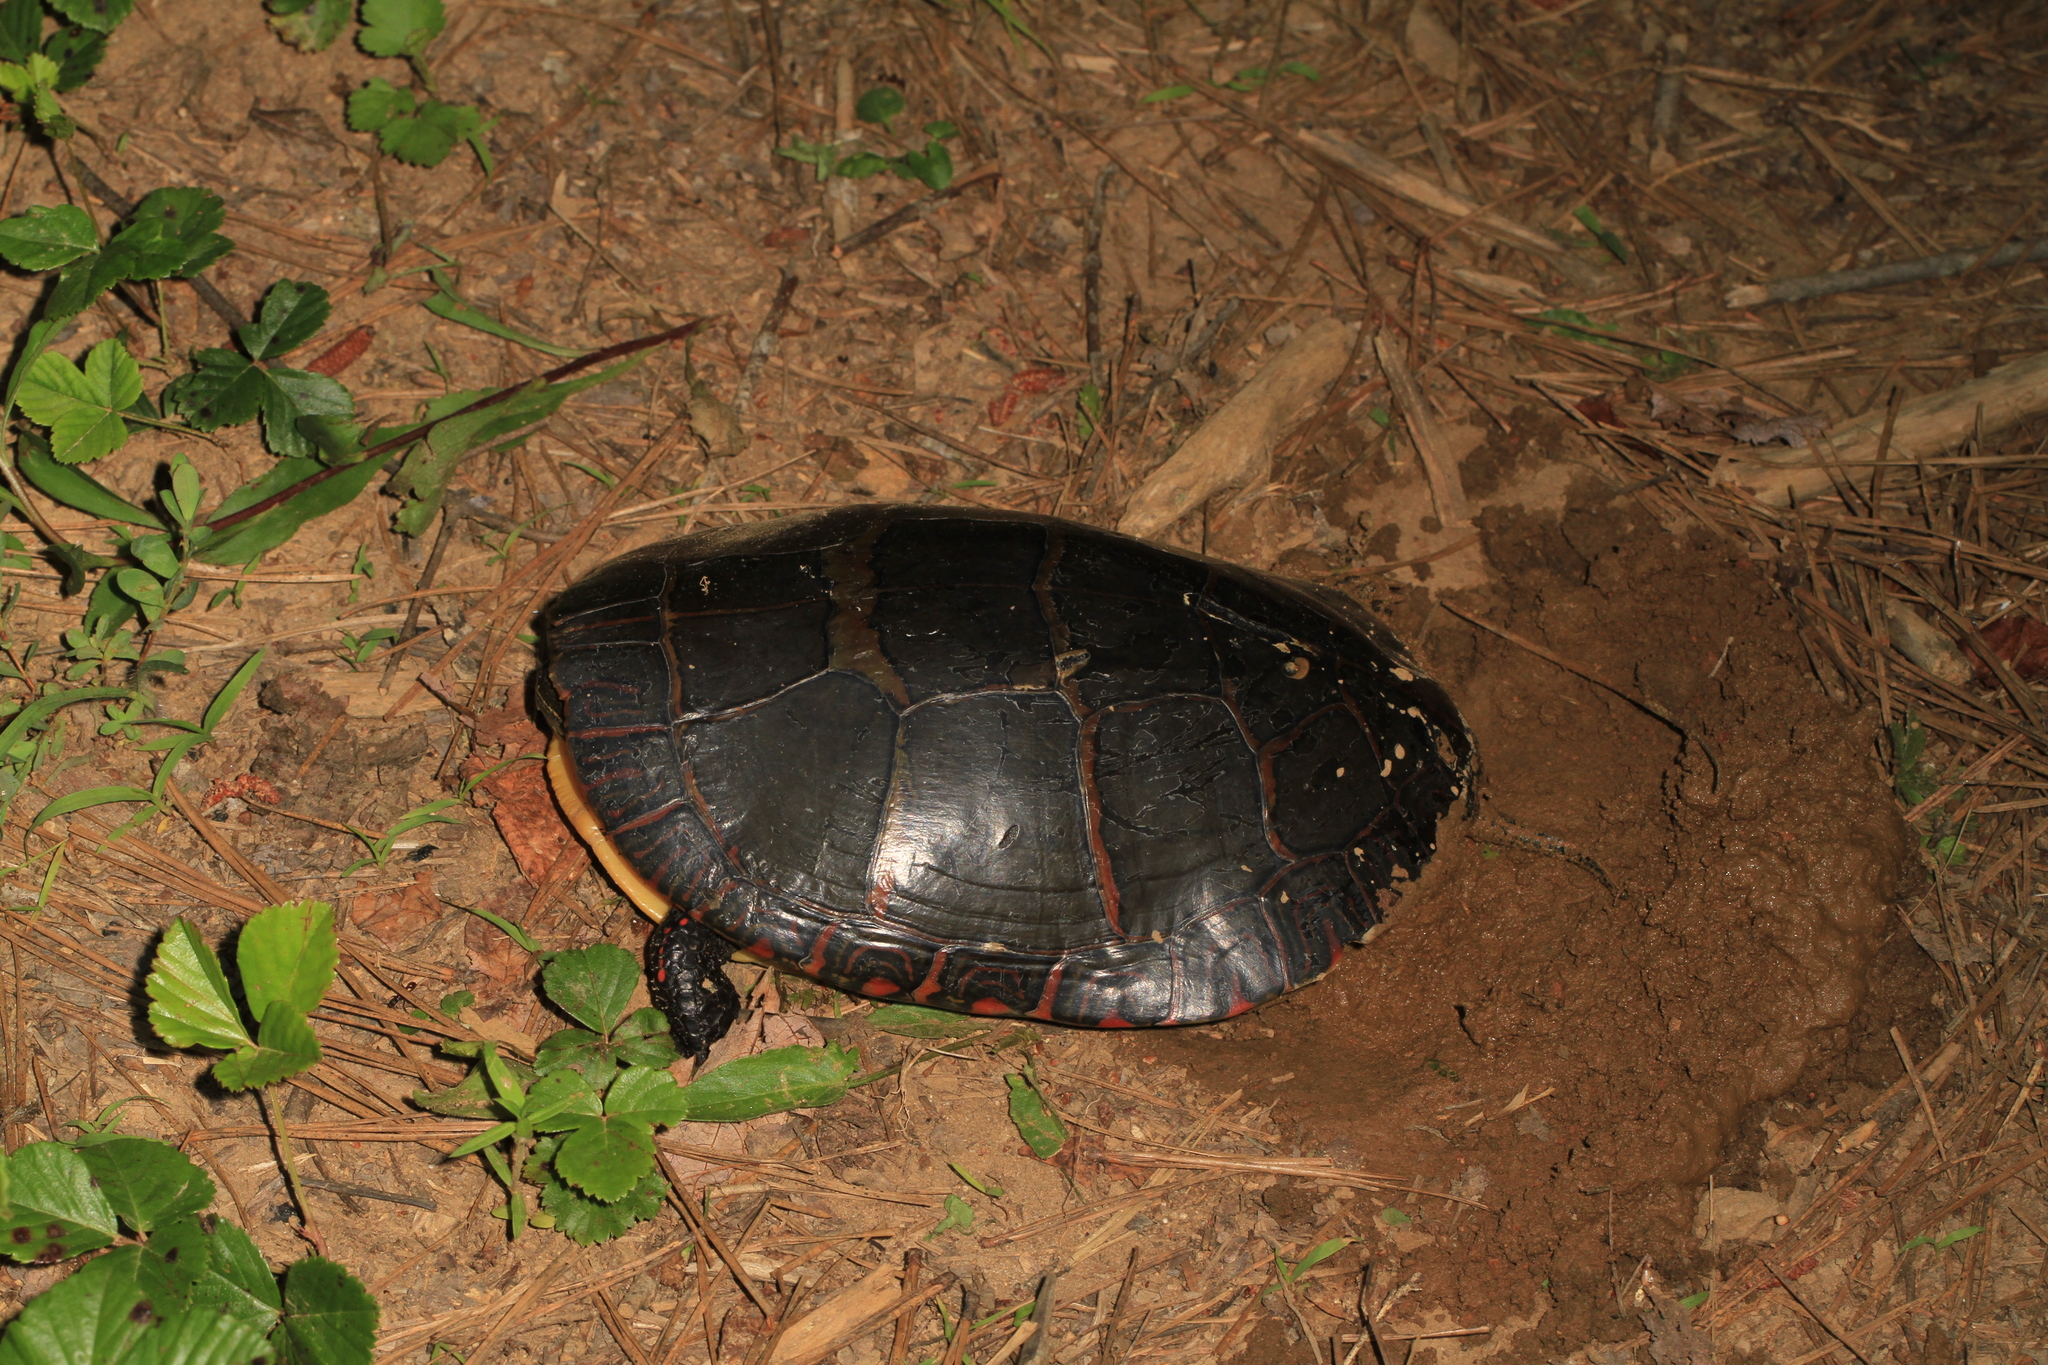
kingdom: Animalia
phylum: Chordata
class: Testudines
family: Emydidae
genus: Chrysemys
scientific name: Chrysemys picta
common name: Painted turtle
